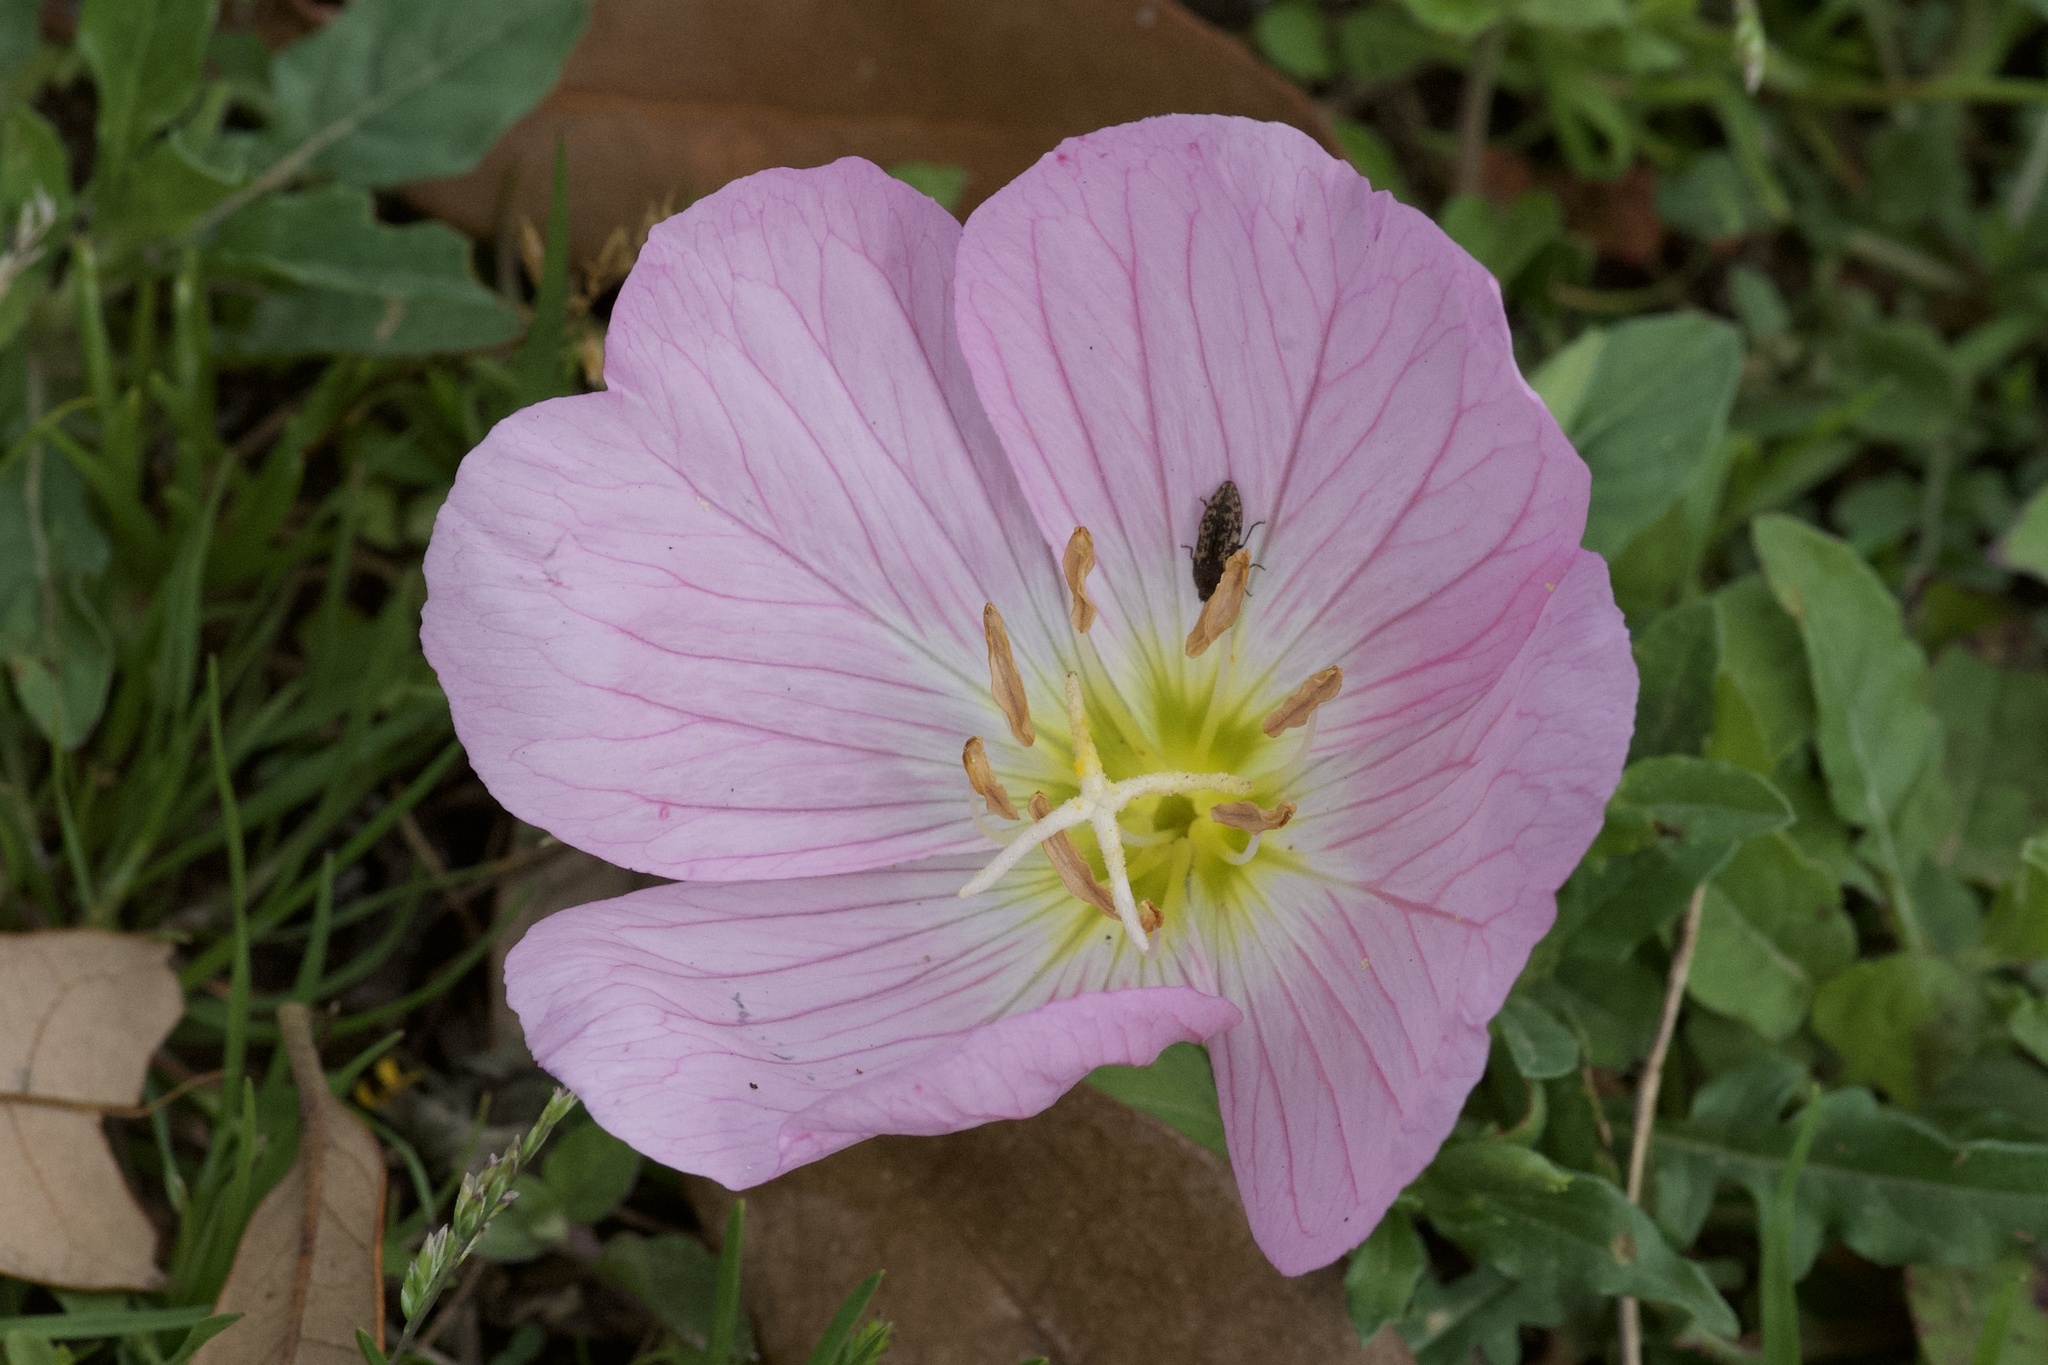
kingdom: Plantae
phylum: Tracheophyta
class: Magnoliopsida
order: Myrtales
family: Onagraceae
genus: Oenothera
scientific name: Oenothera speciosa
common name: White evening-primrose
